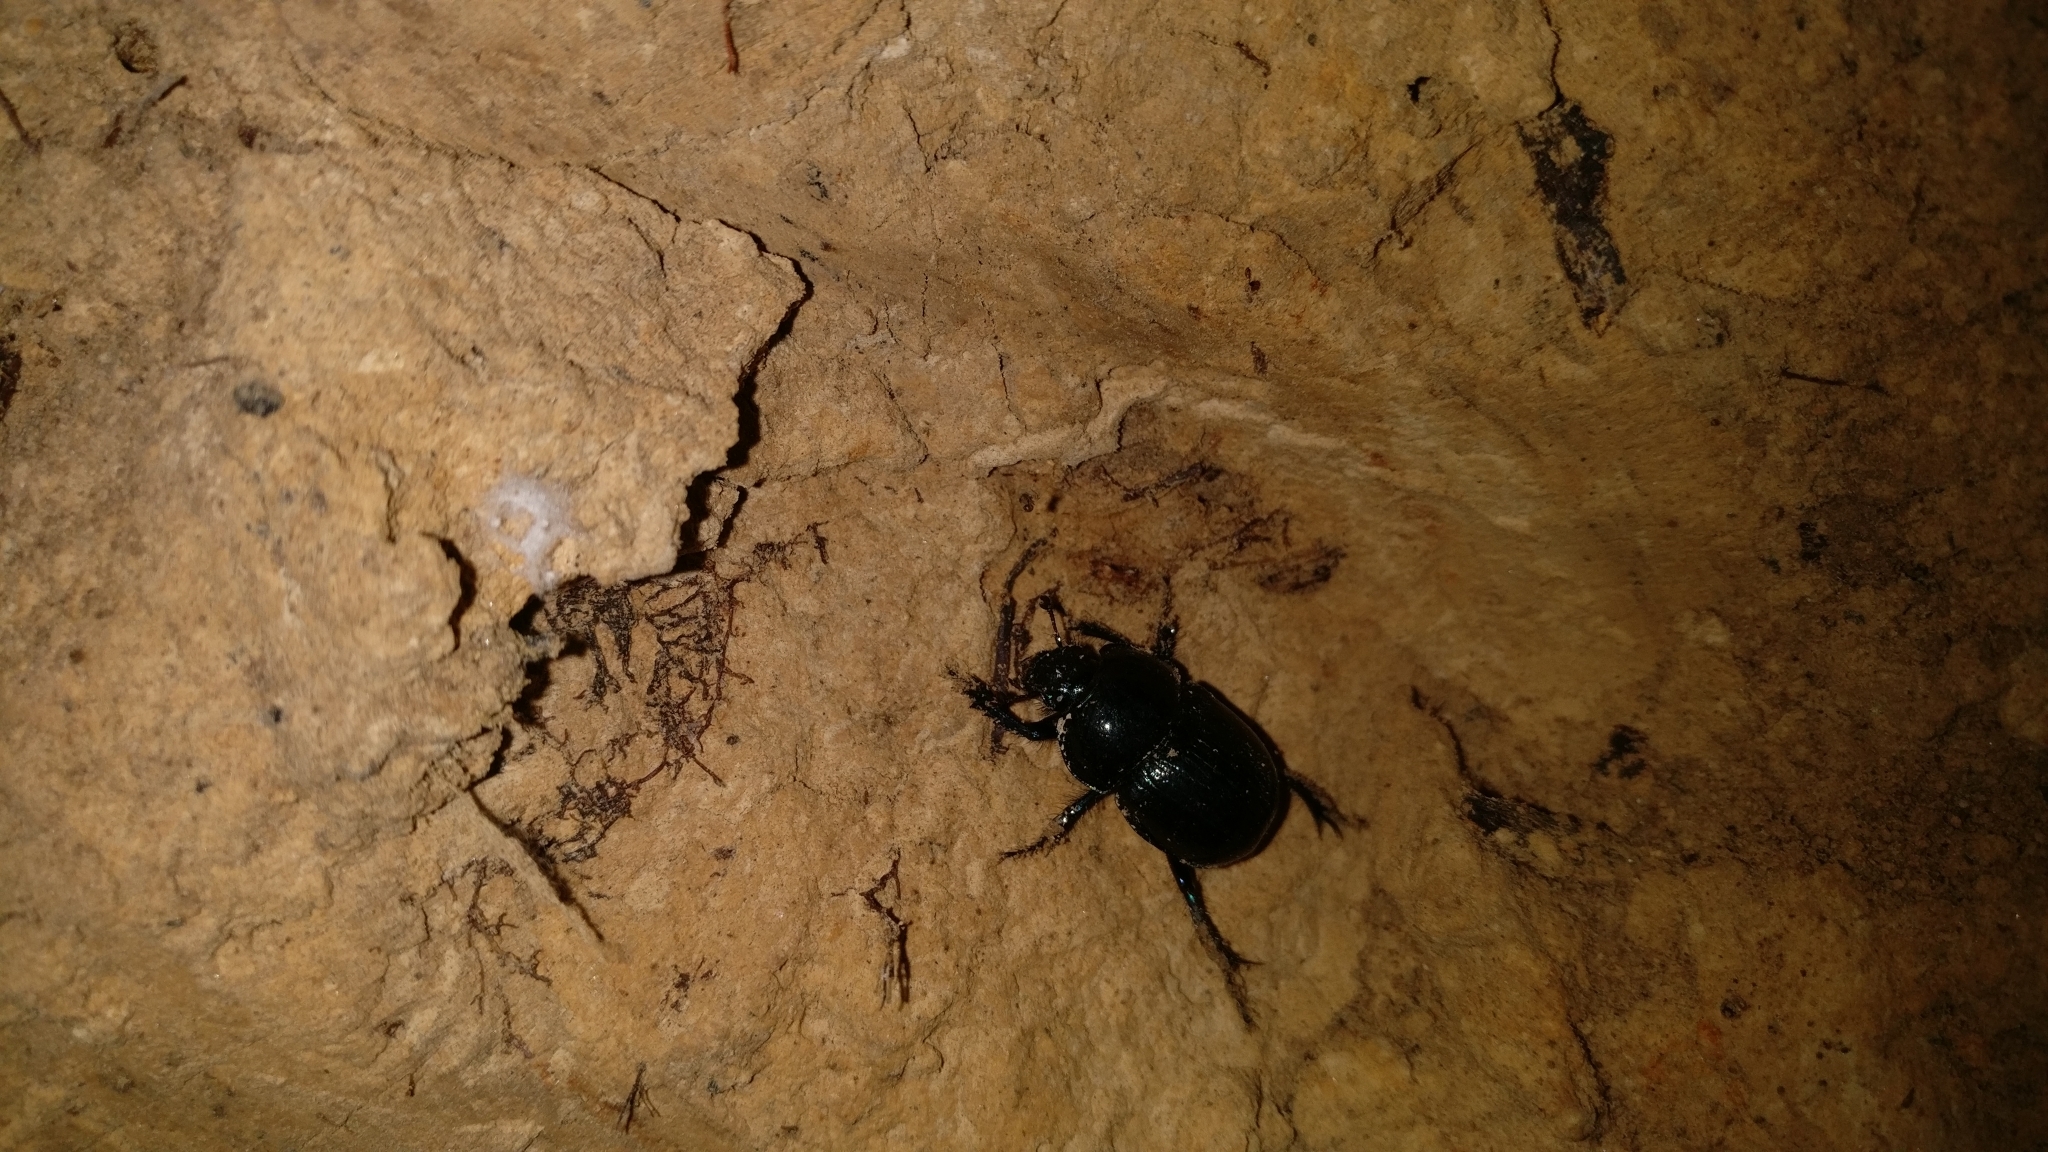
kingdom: Animalia
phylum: Arthropoda
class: Insecta
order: Coleoptera
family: Geotrupidae
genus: Anoplotrupes
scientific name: Anoplotrupes stercorosus
